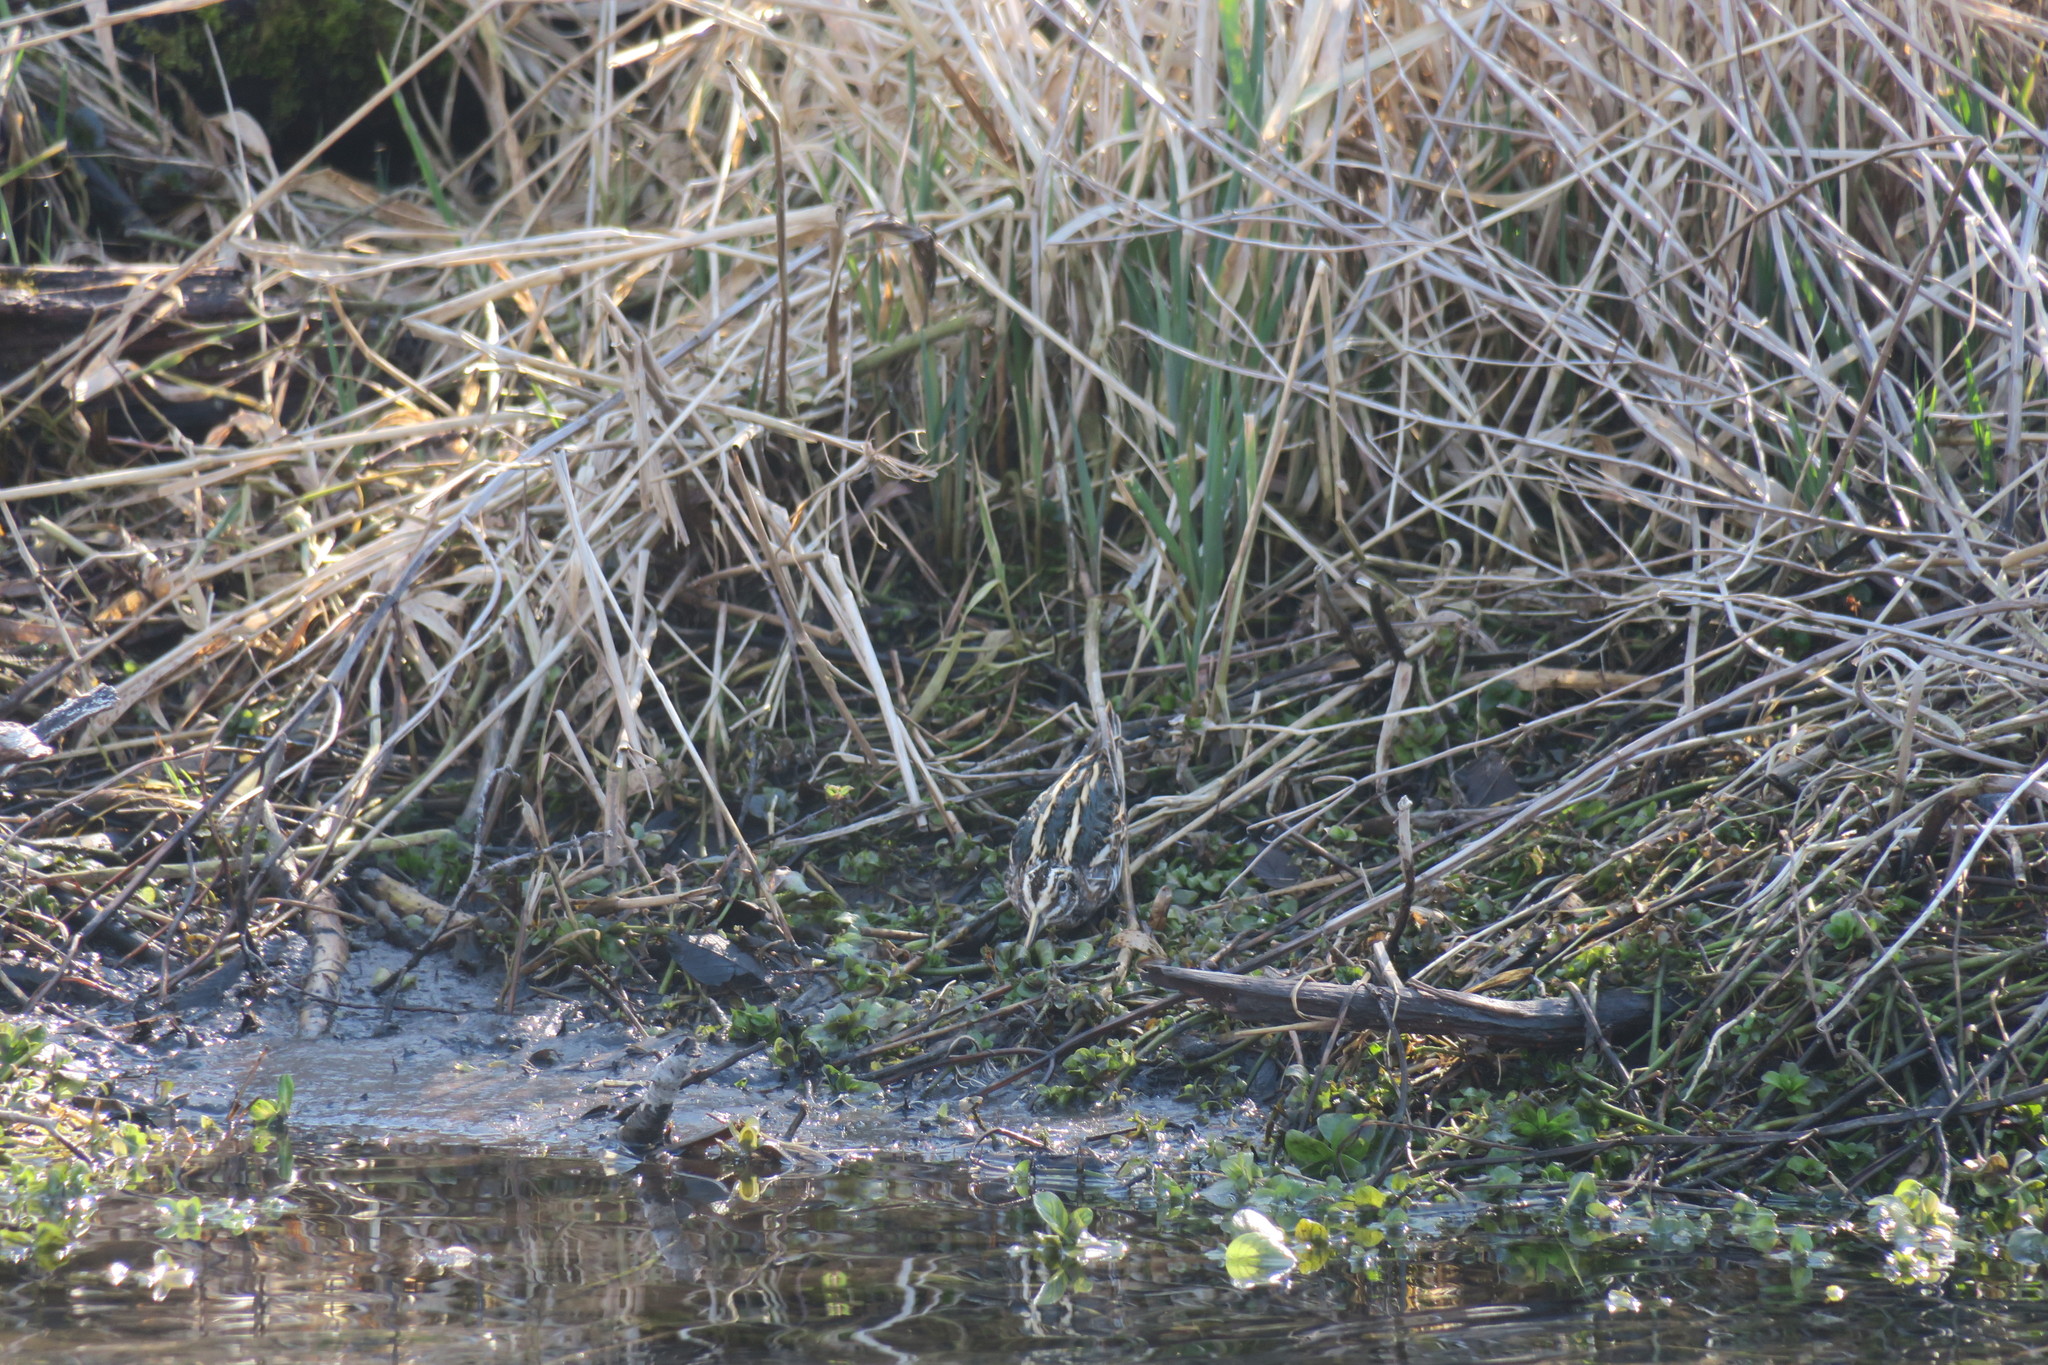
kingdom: Animalia
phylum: Chordata
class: Aves
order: Charadriiformes
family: Scolopacidae
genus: Lymnocryptes
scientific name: Lymnocryptes minimus
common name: Jack snipe
